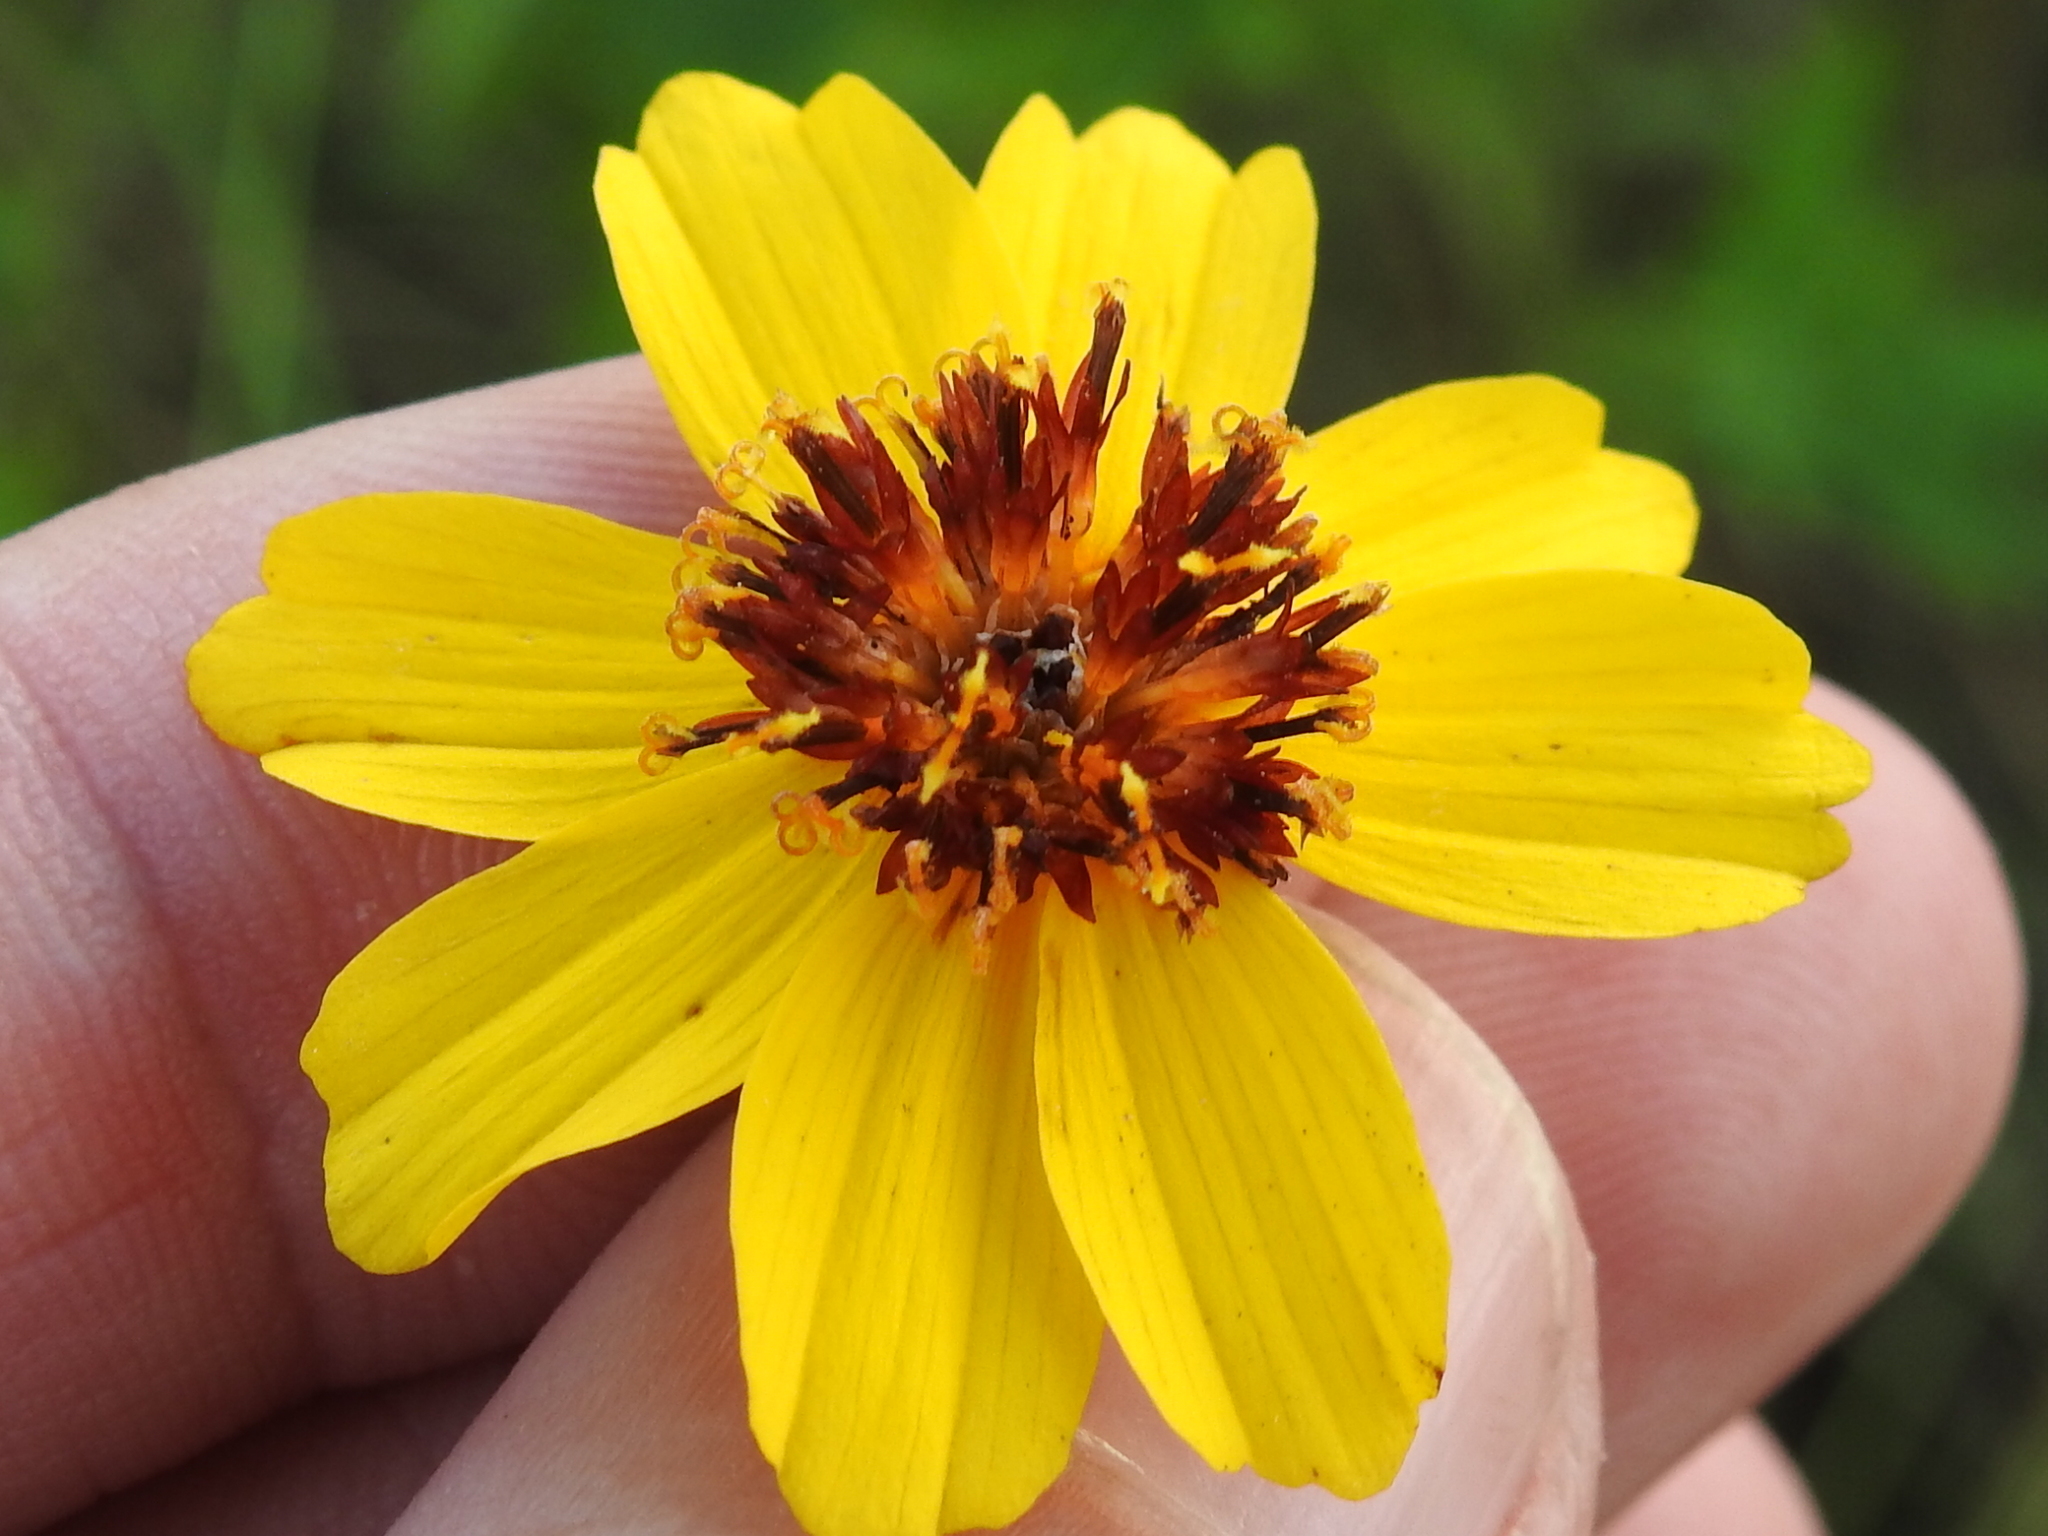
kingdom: Plantae
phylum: Tracheophyta
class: Magnoliopsida
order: Asterales
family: Asteraceae
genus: Thelesperma
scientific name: Thelesperma filifolium
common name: Stiff greenthread
